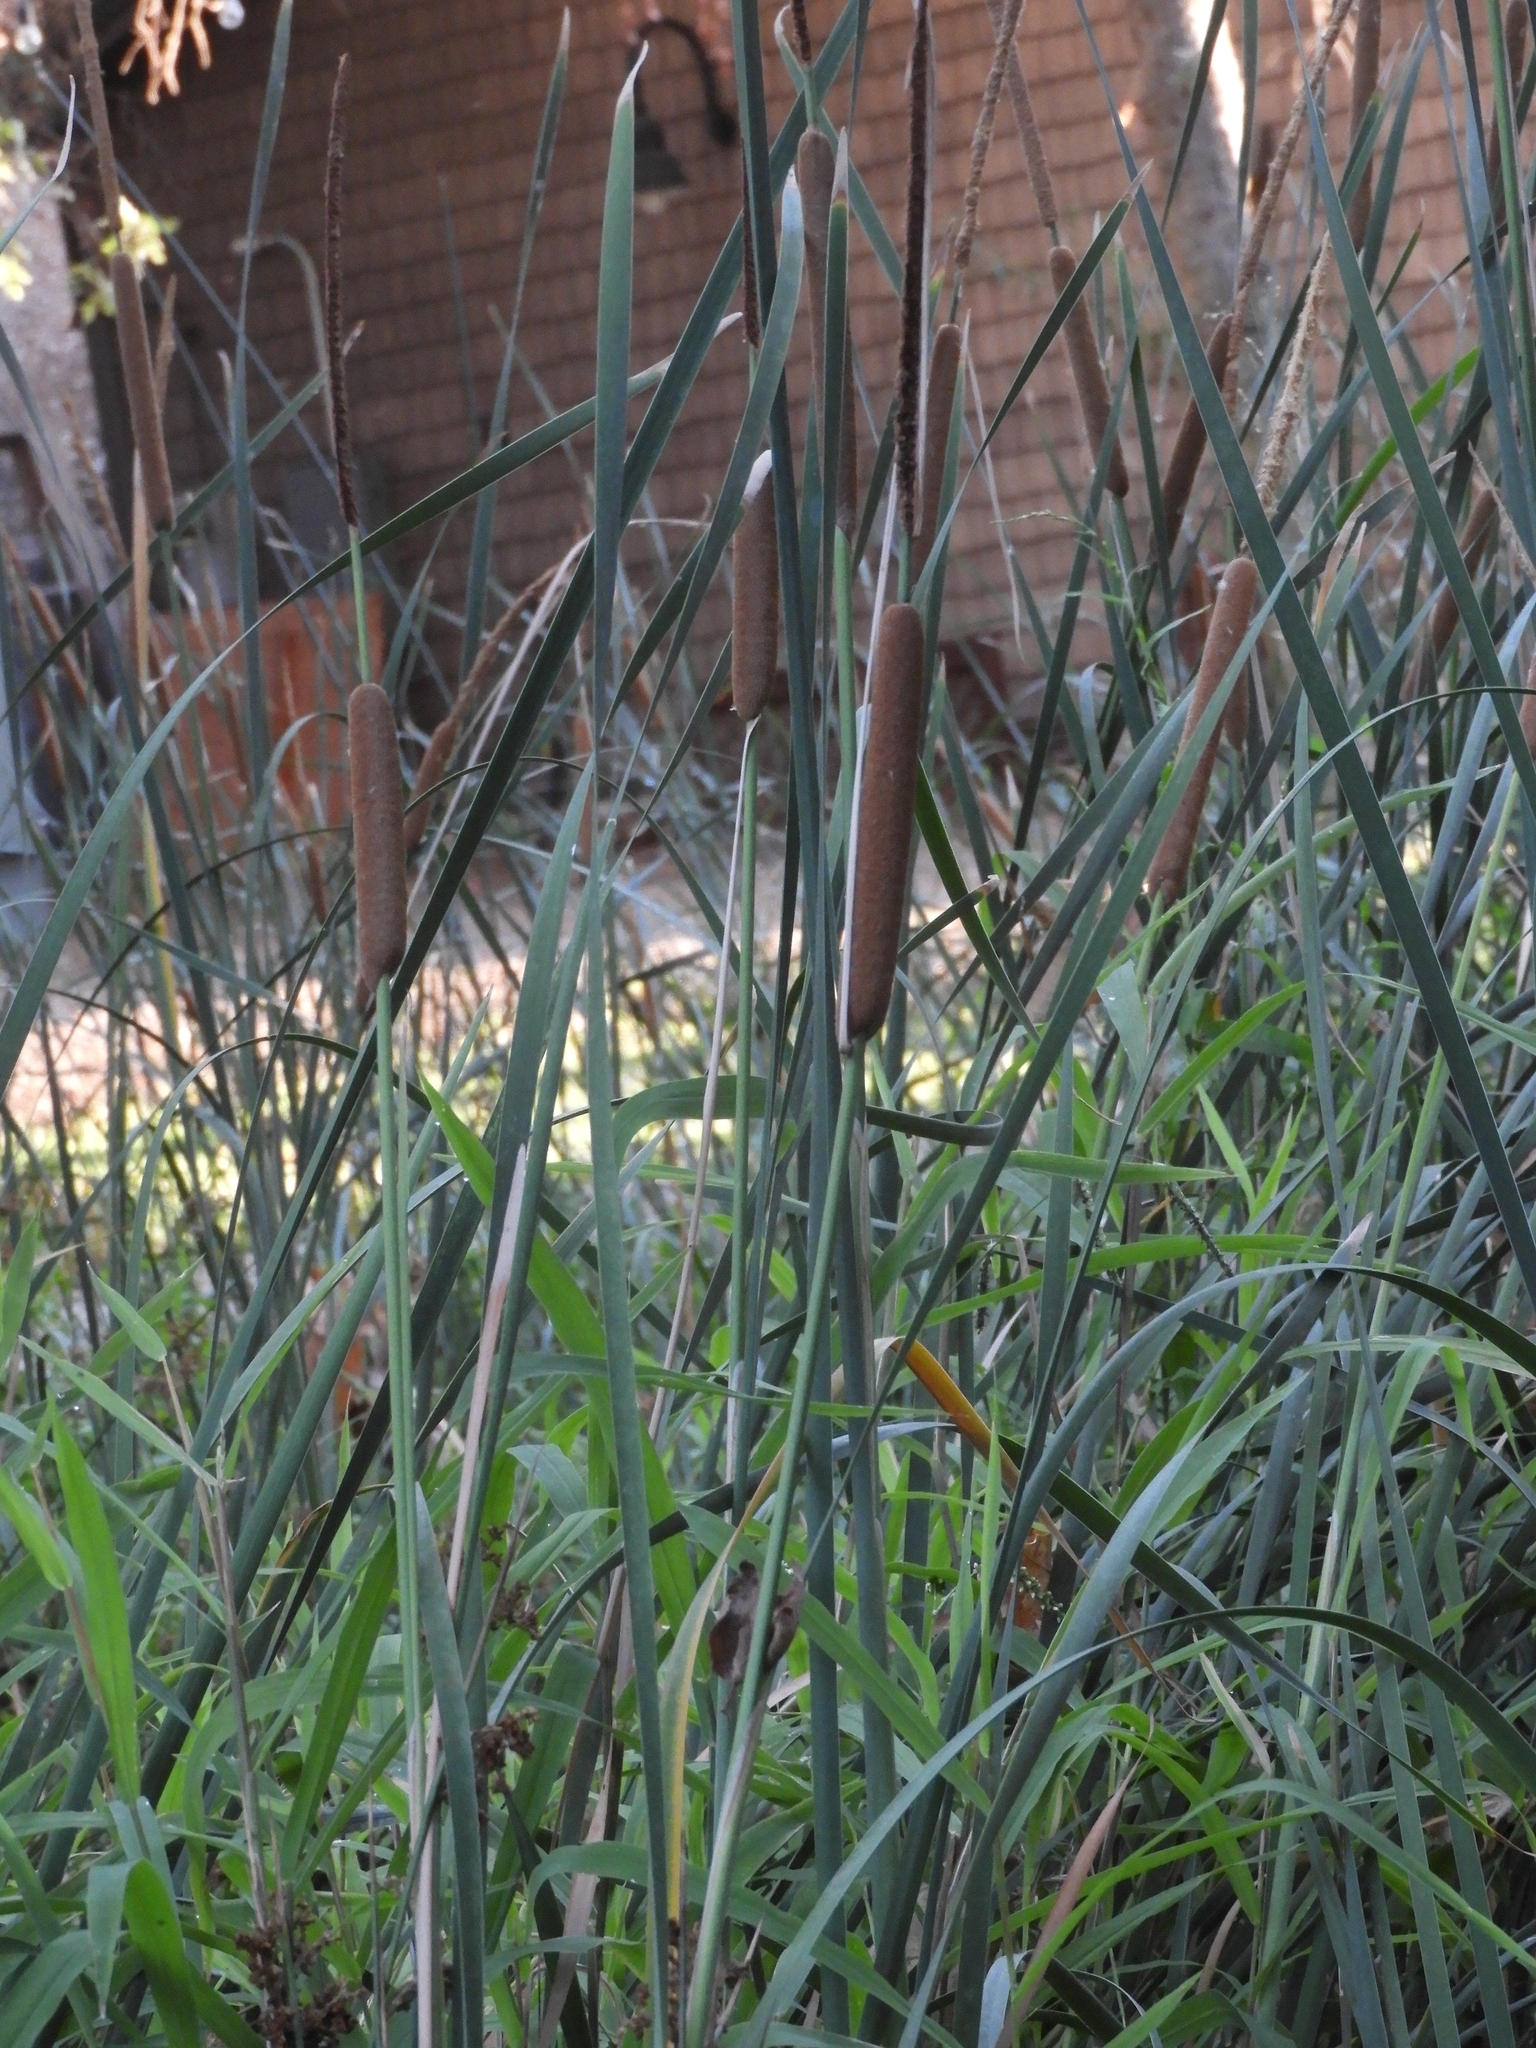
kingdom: Plantae
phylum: Tracheophyta
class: Liliopsida
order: Poales
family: Typhaceae
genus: Typha
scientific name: Typha angustifolia
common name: Lesser bulrush
